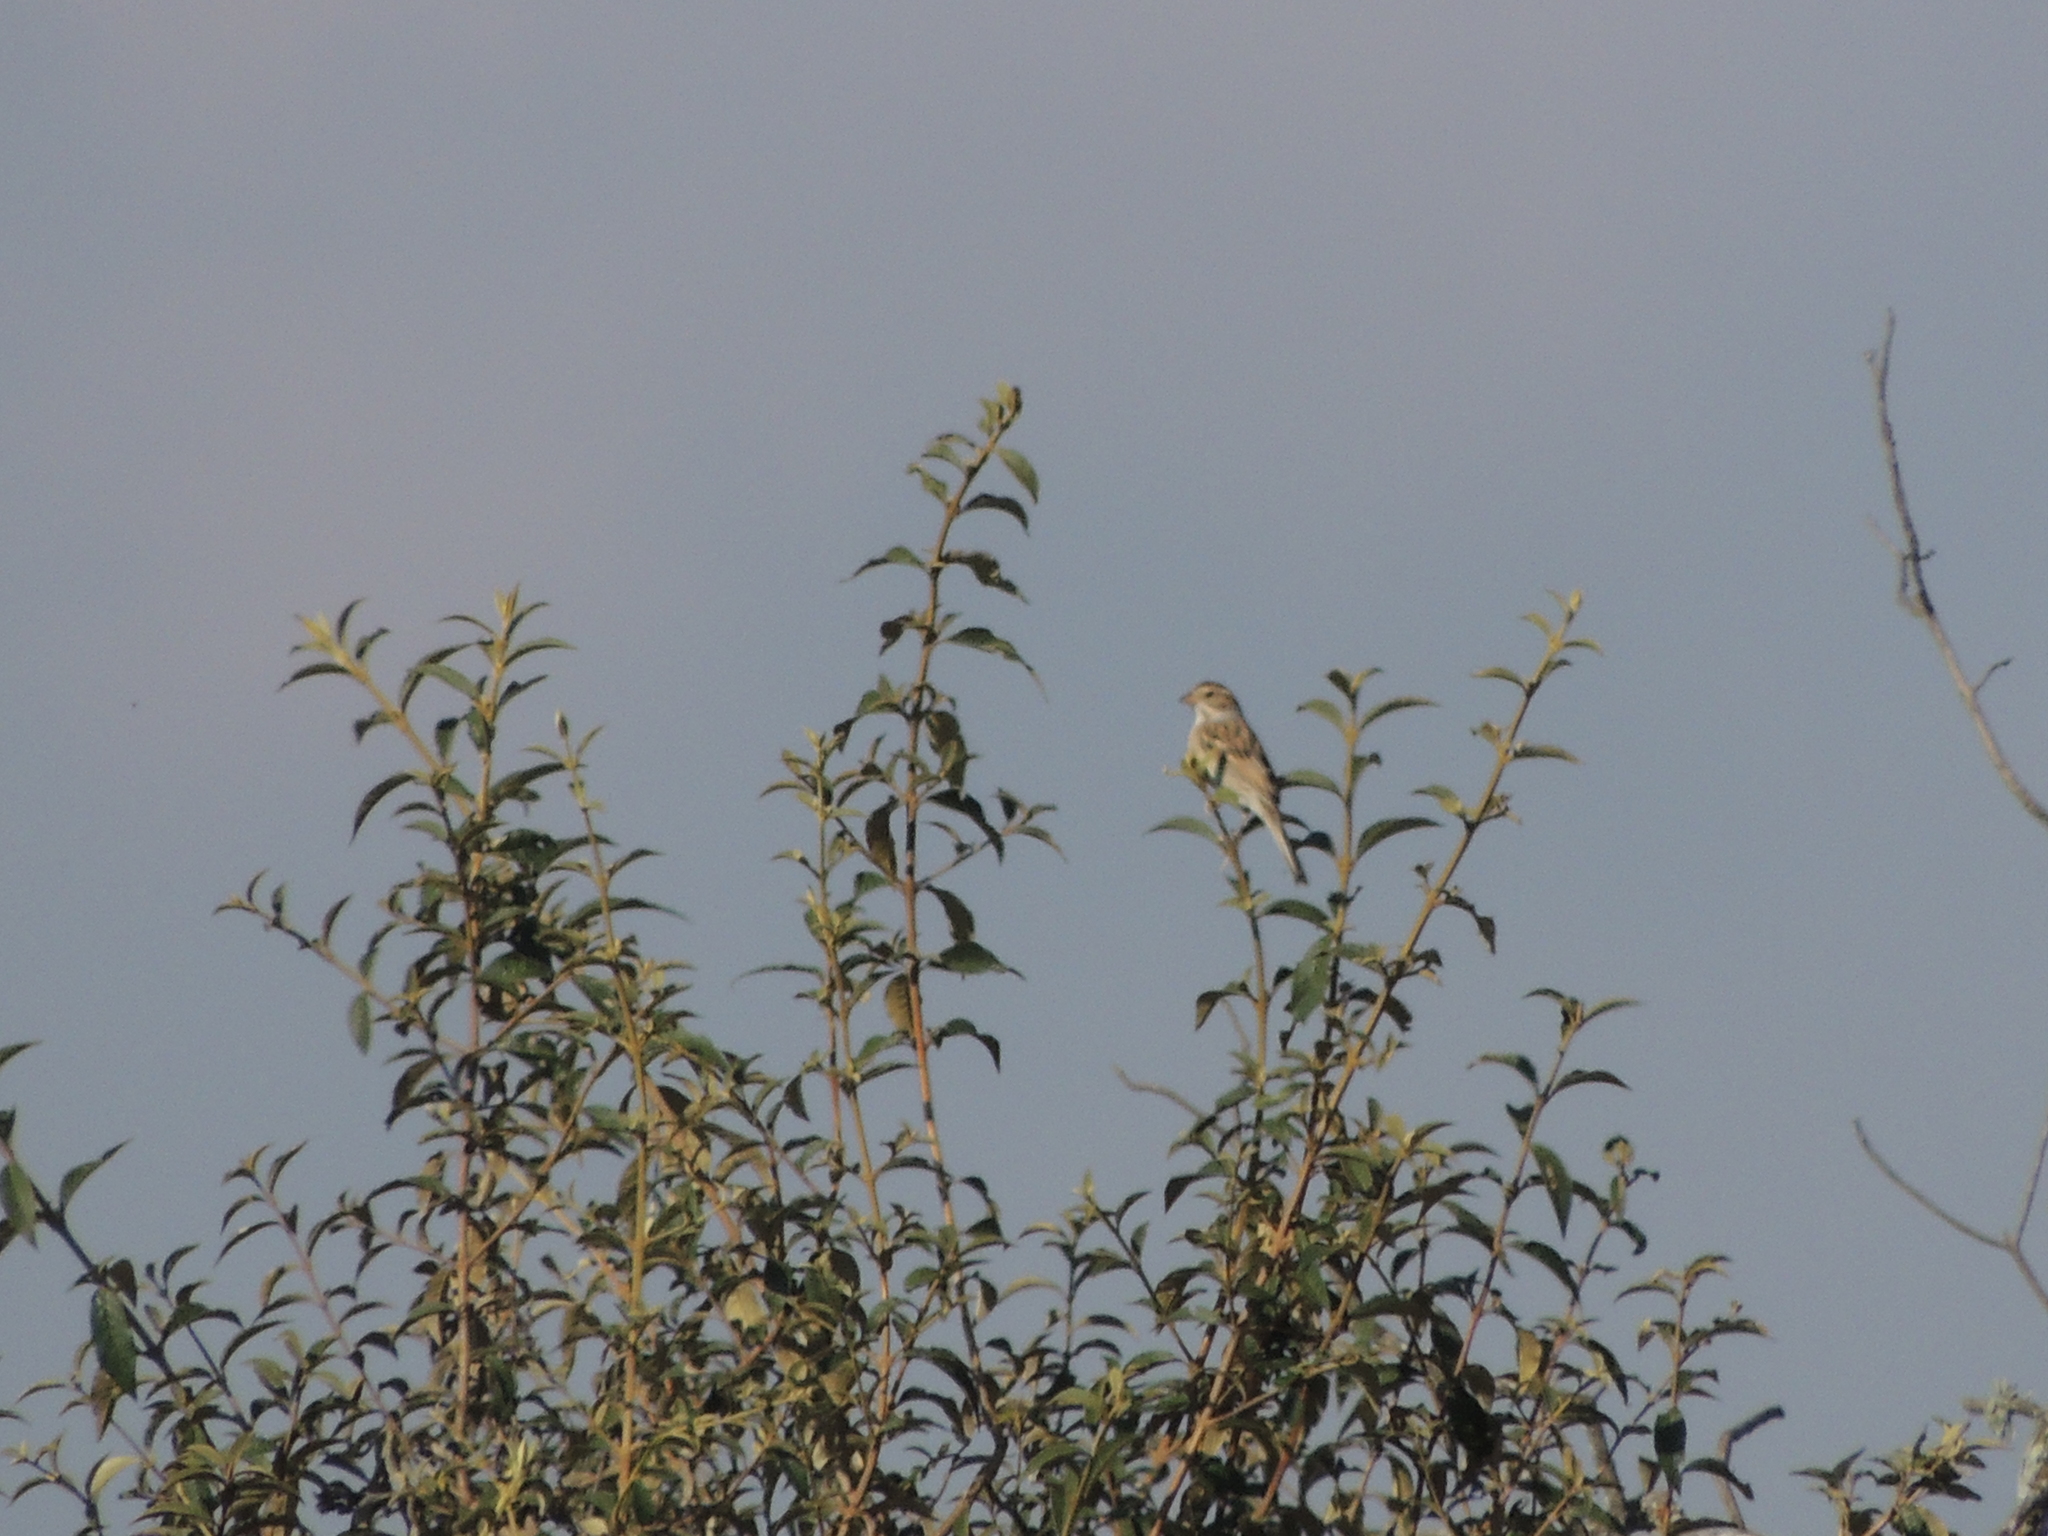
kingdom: Animalia
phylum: Chordata
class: Aves
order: Passeriformes
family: Passerellidae
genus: Spizella
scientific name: Spizella pallida
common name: Clay-colored sparrow
